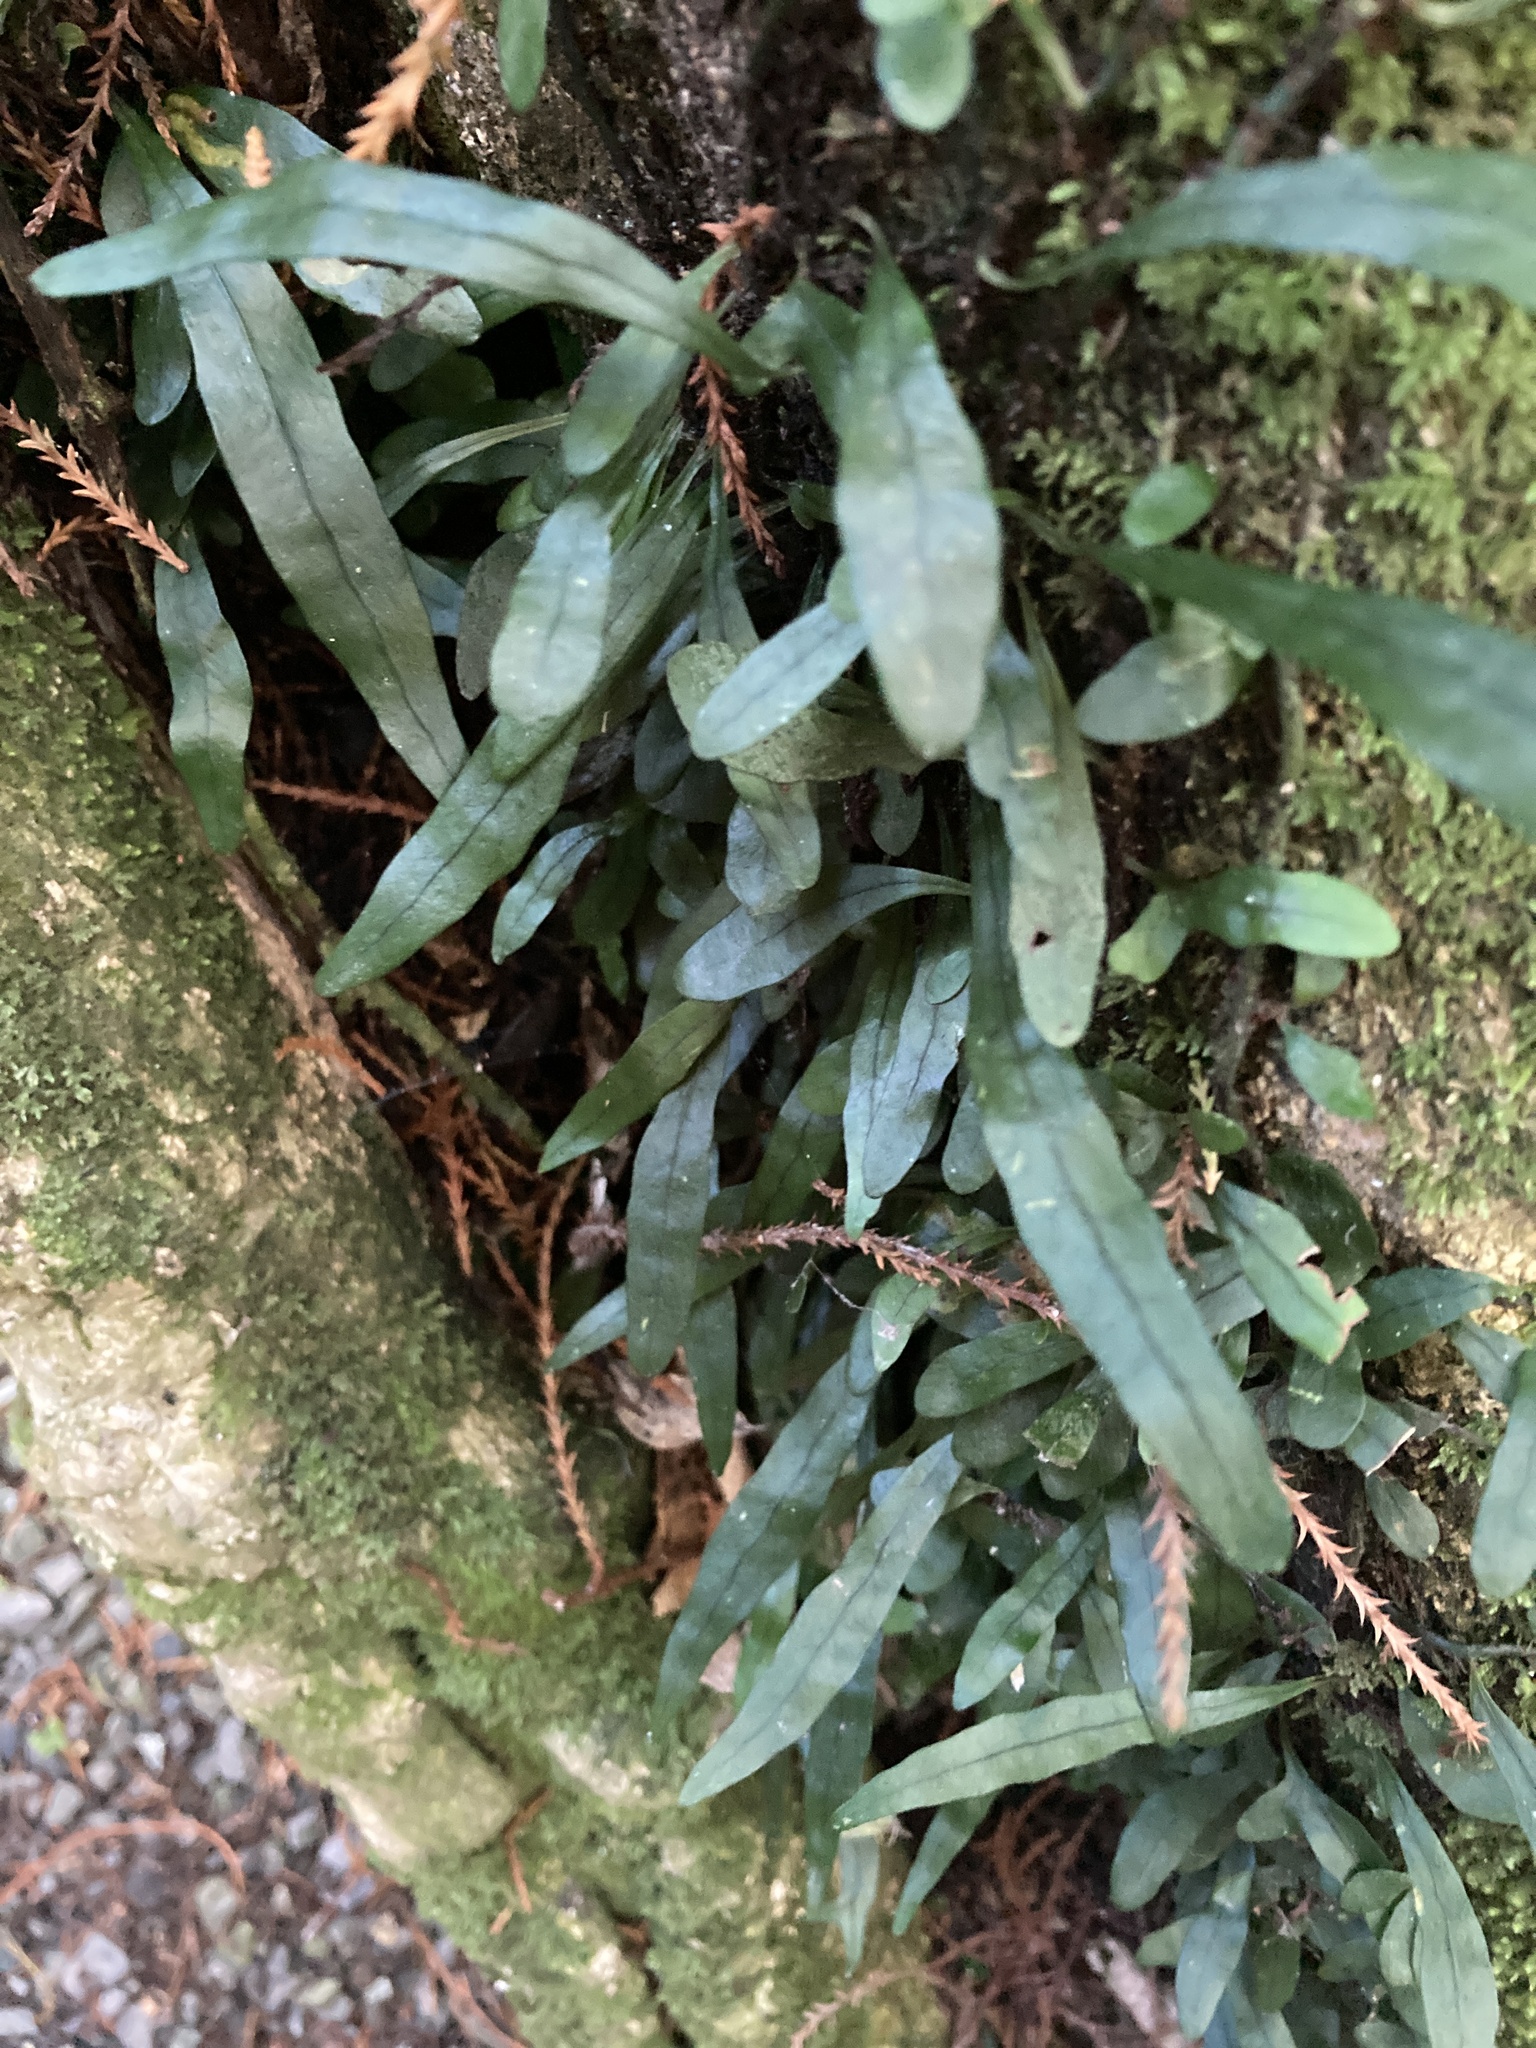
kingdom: Plantae
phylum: Tracheophyta
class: Polypodiopsida
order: Polypodiales
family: Polypodiaceae
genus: Lecanopteris
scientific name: Lecanopteris pustulata
